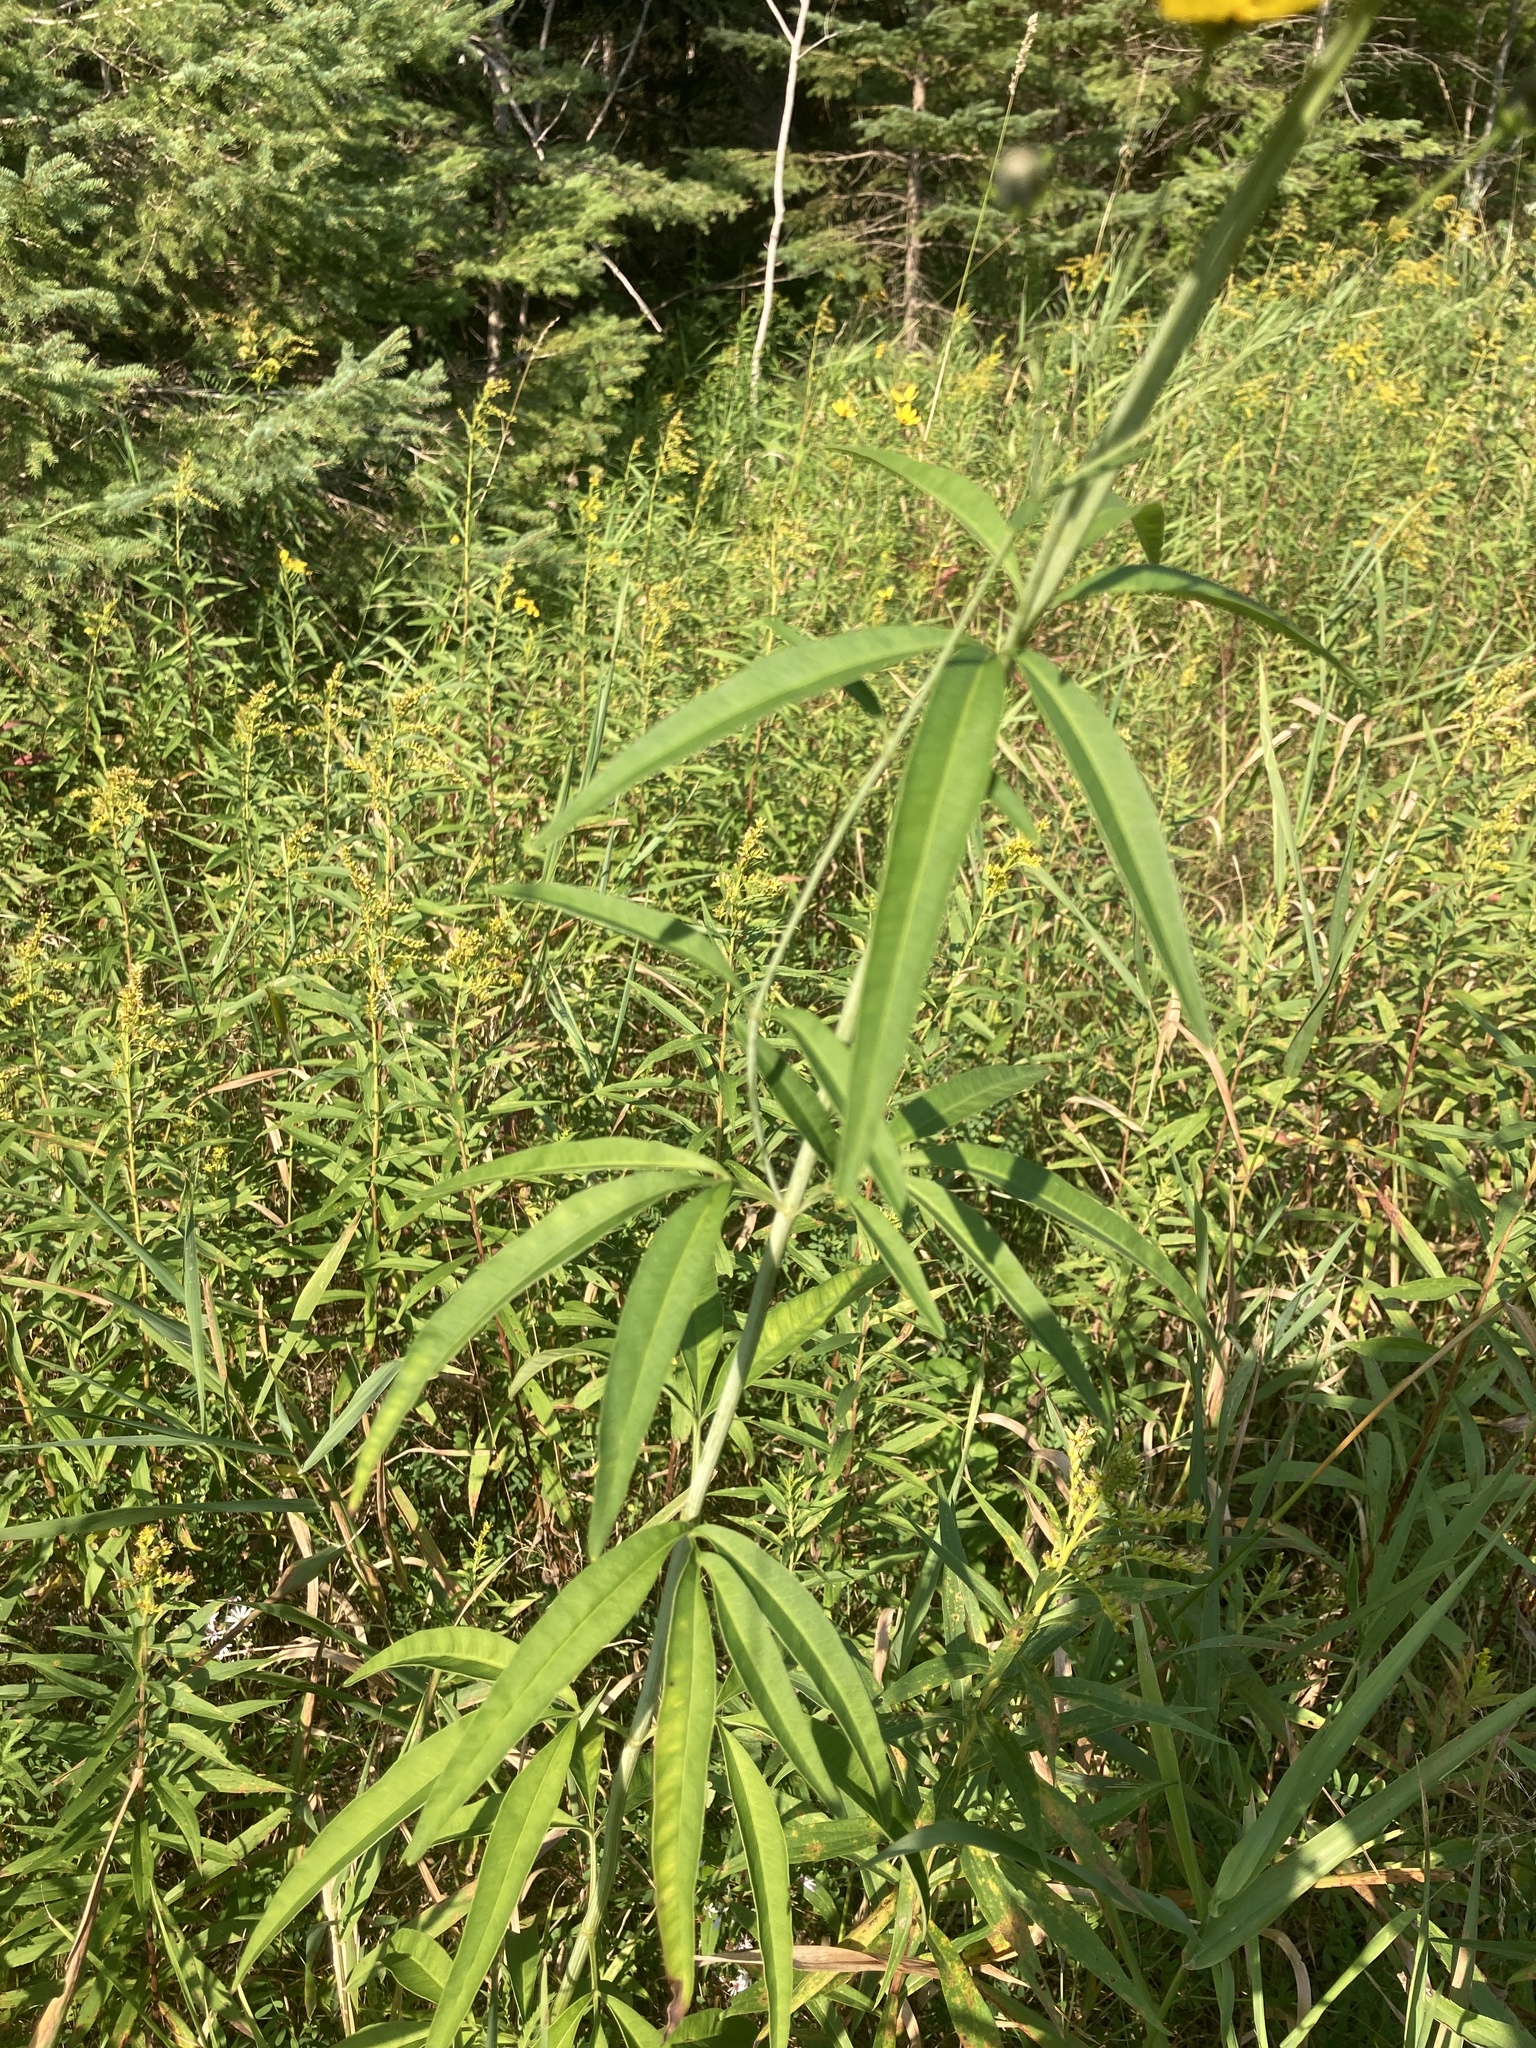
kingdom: Plantae
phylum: Tracheophyta
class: Magnoliopsida
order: Asterales
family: Asteraceae
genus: Coreopsis
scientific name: Coreopsis tripteris
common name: Tall coreopsis
